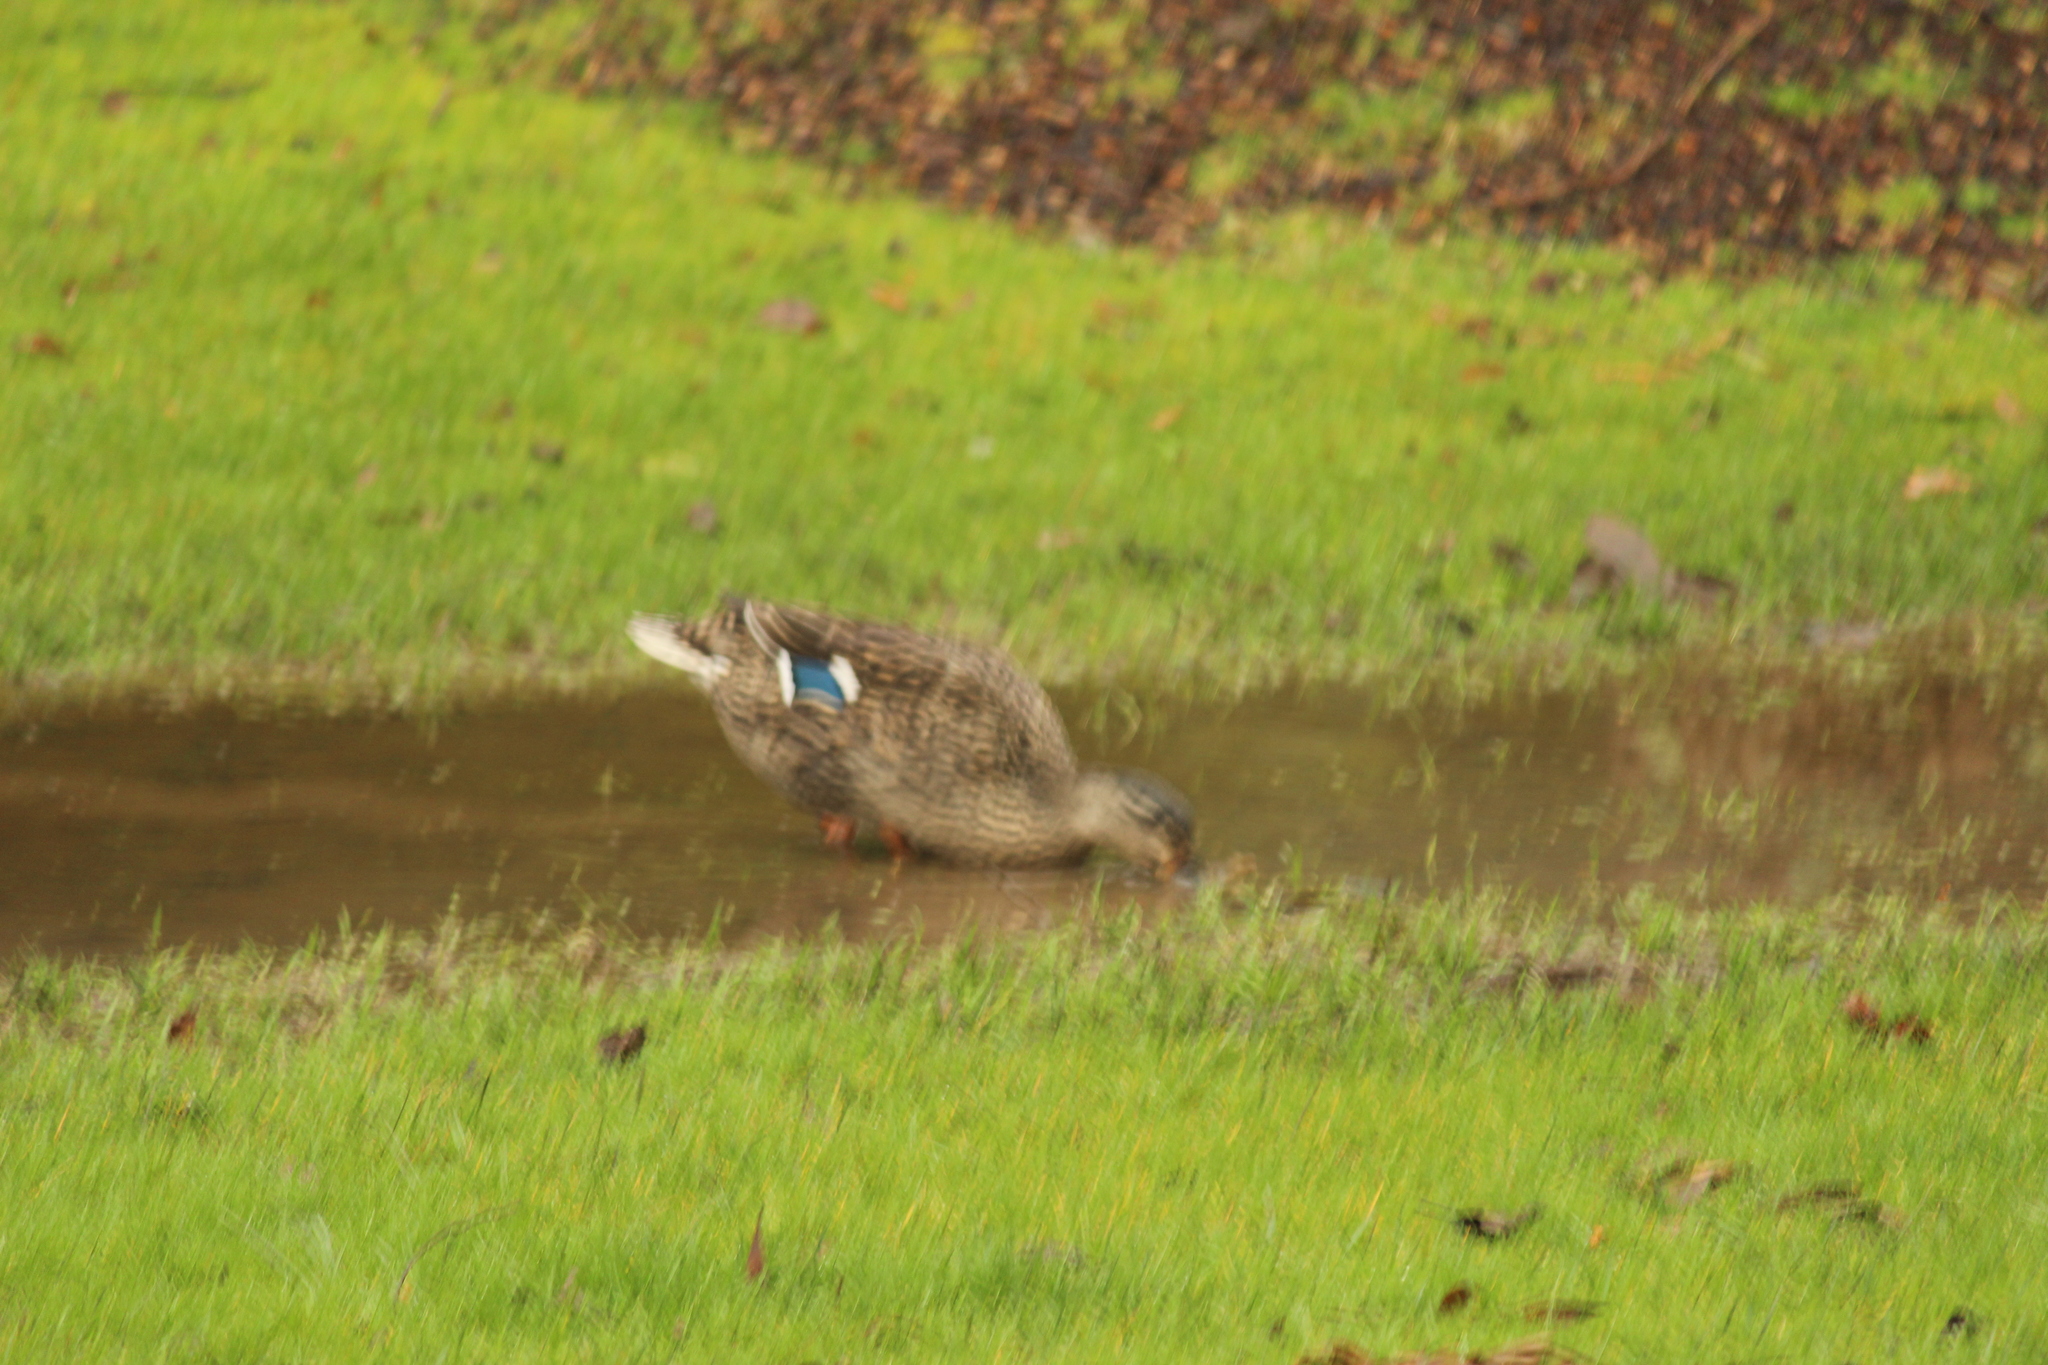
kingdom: Animalia
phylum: Chordata
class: Aves
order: Anseriformes
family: Anatidae
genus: Anas
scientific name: Anas platyrhynchos
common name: Mallard
